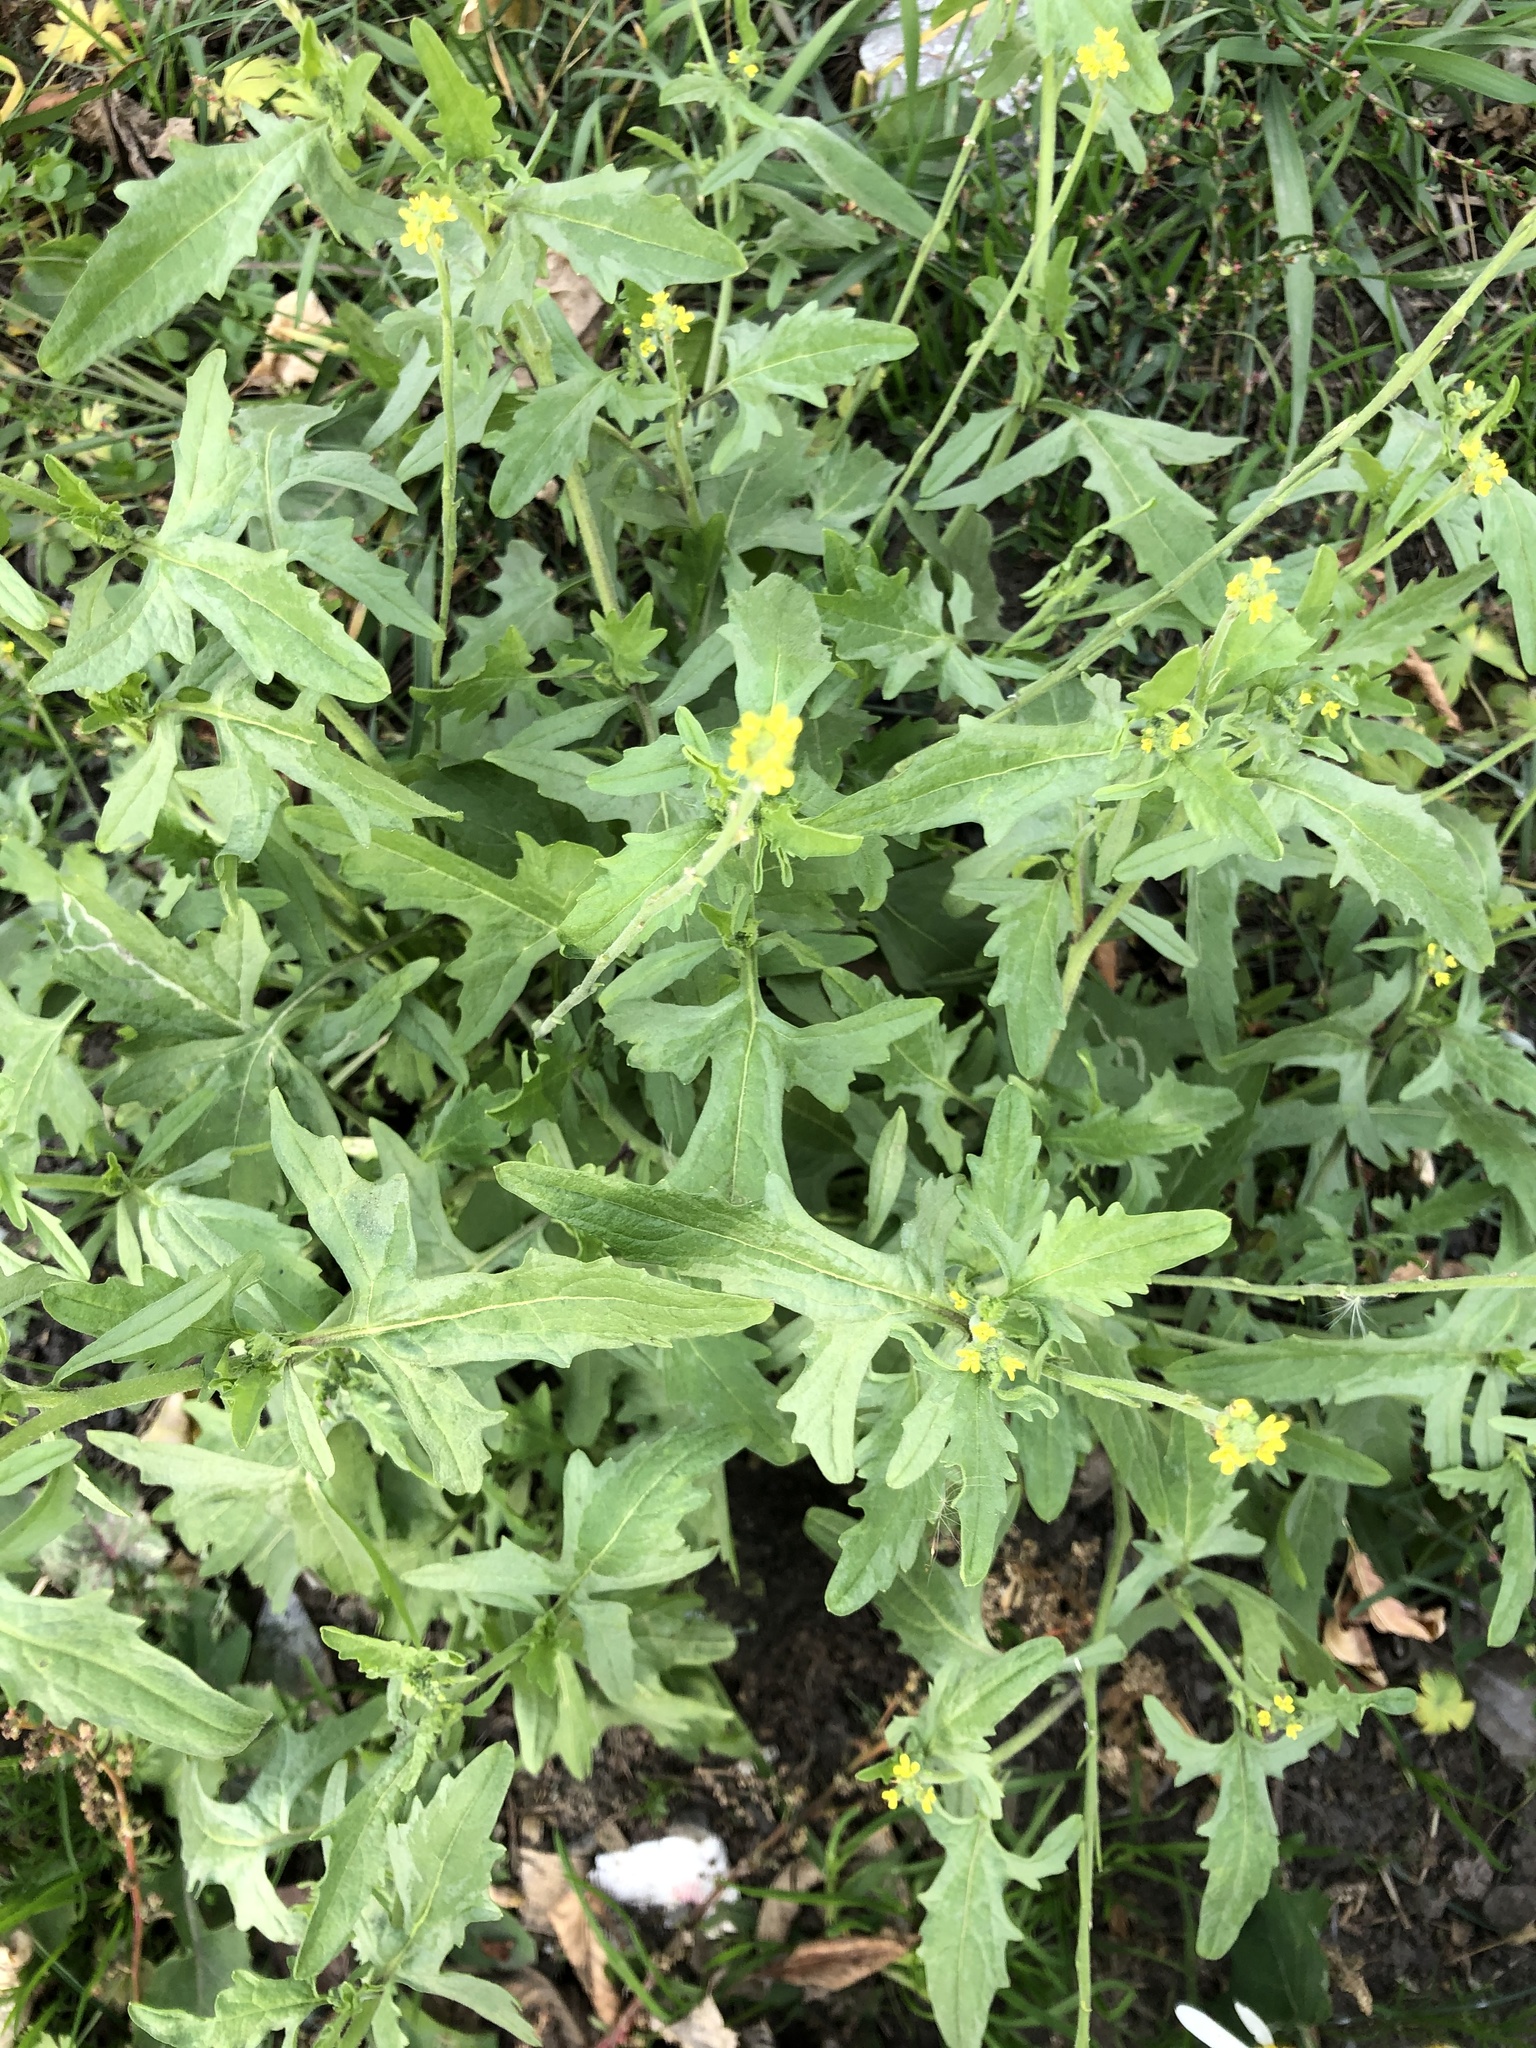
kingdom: Plantae
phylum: Tracheophyta
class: Magnoliopsida
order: Brassicales
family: Brassicaceae
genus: Sisymbrium
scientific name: Sisymbrium officinale
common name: Hedge mustard
